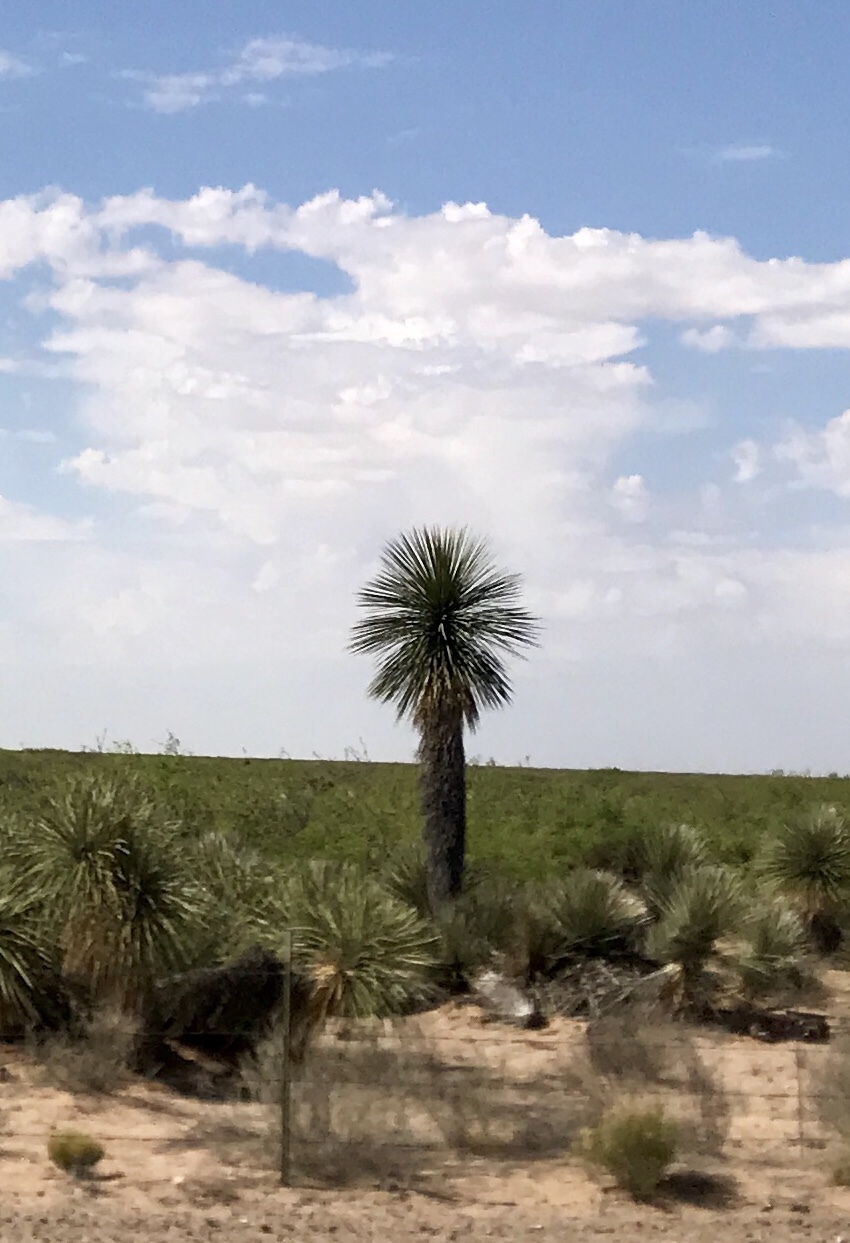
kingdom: Plantae
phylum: Tracheophyta
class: Liliopsida
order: Asparagales
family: Asparagaceae
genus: Yucca
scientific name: Yucca elata
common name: Palmella
